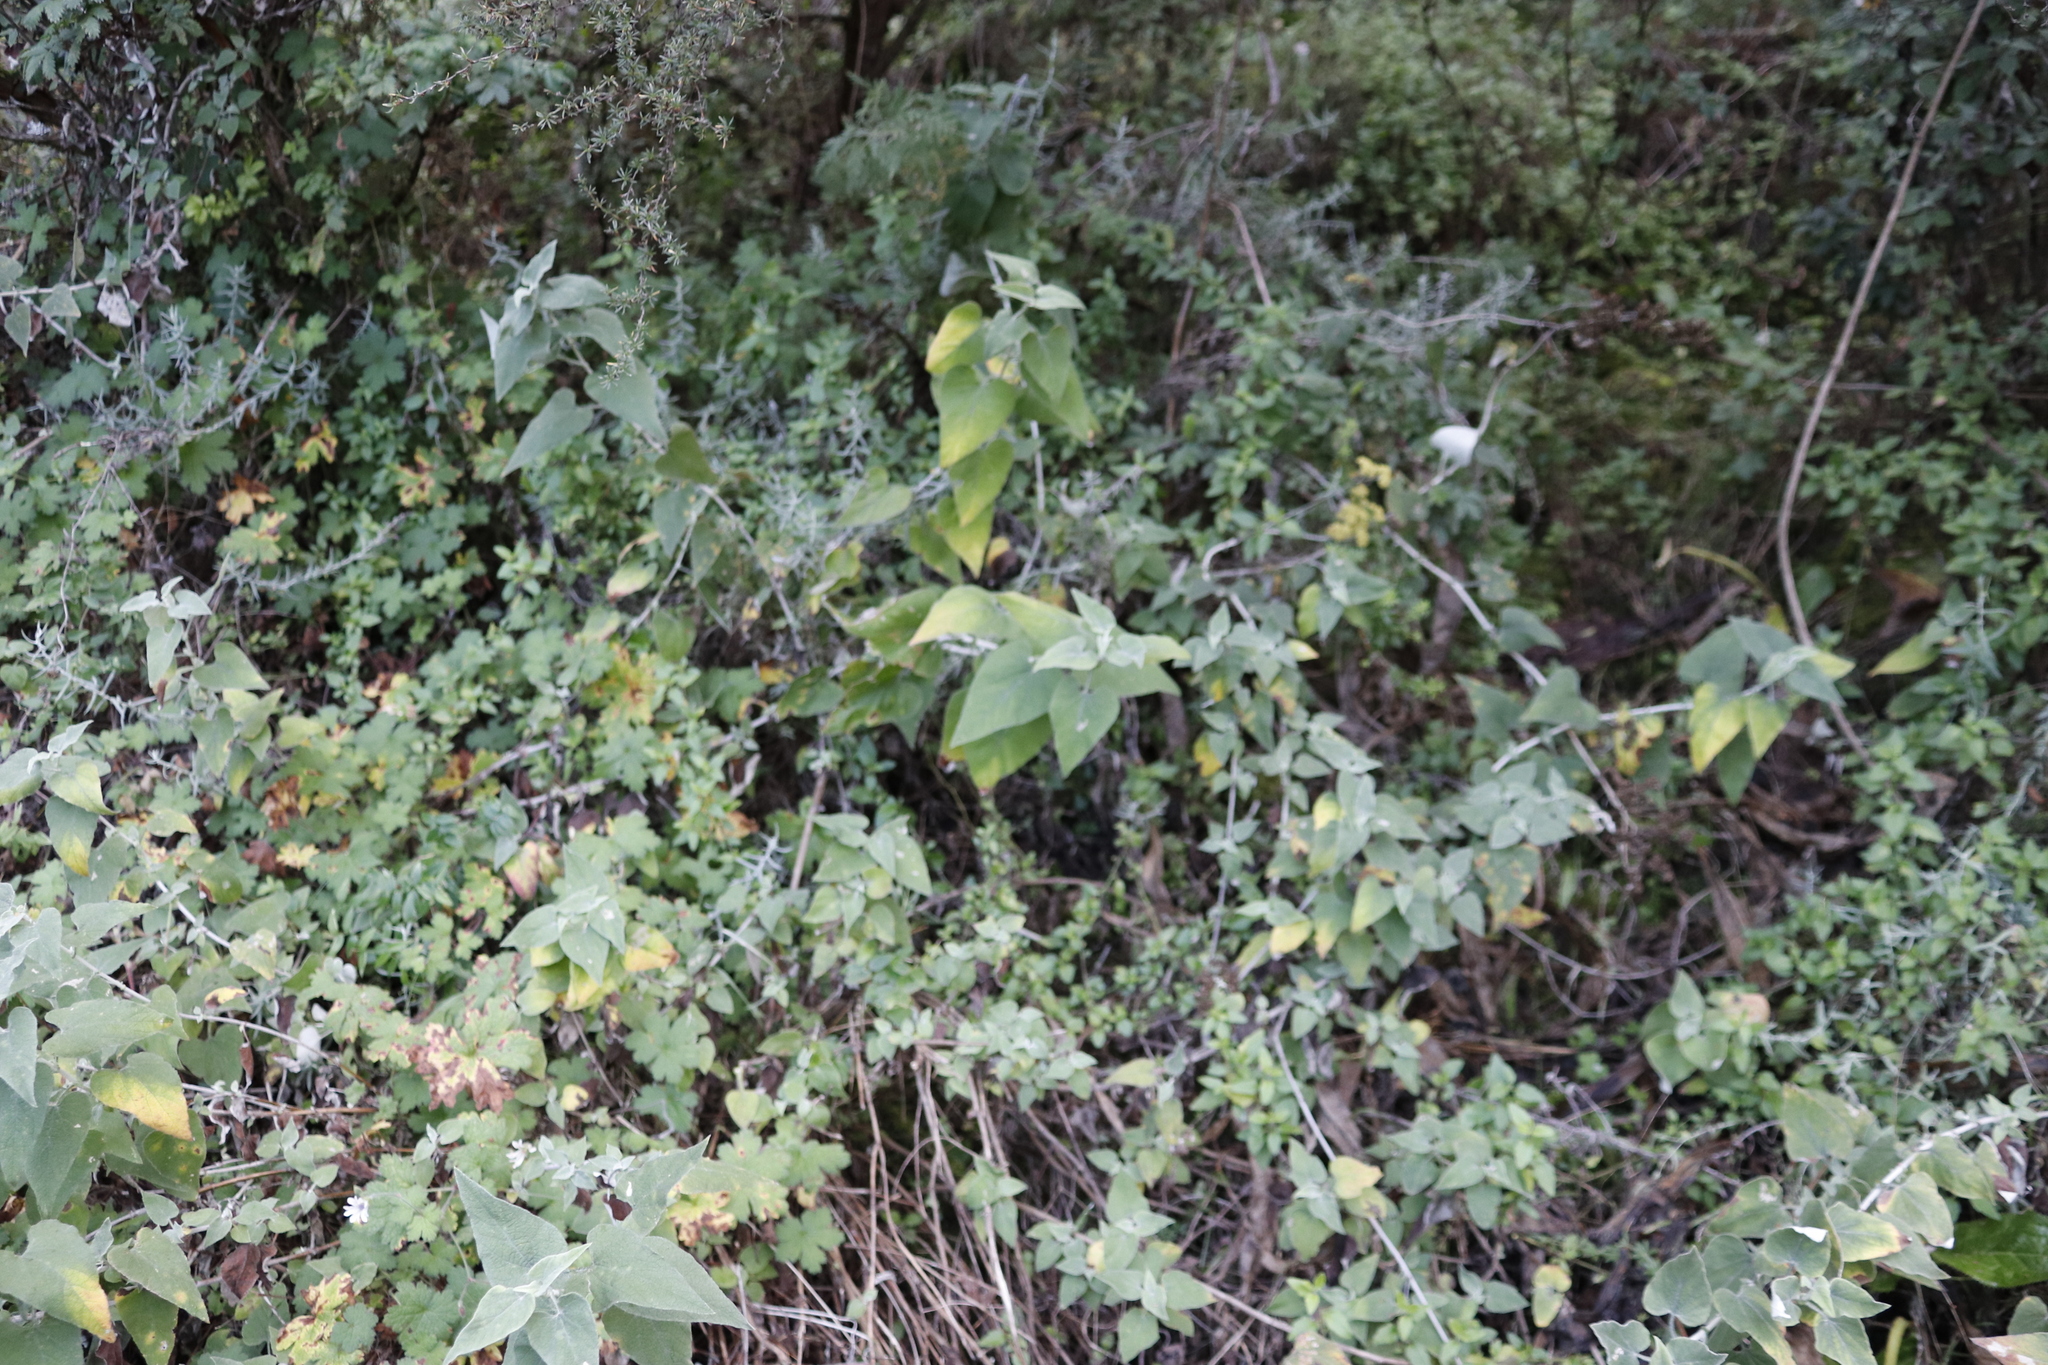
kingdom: Plantae
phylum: Tracheophyta
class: Magnoliopsida
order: Asterales
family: Asteraceae
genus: Helichrysum
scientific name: Helichrysum hypoleucum
